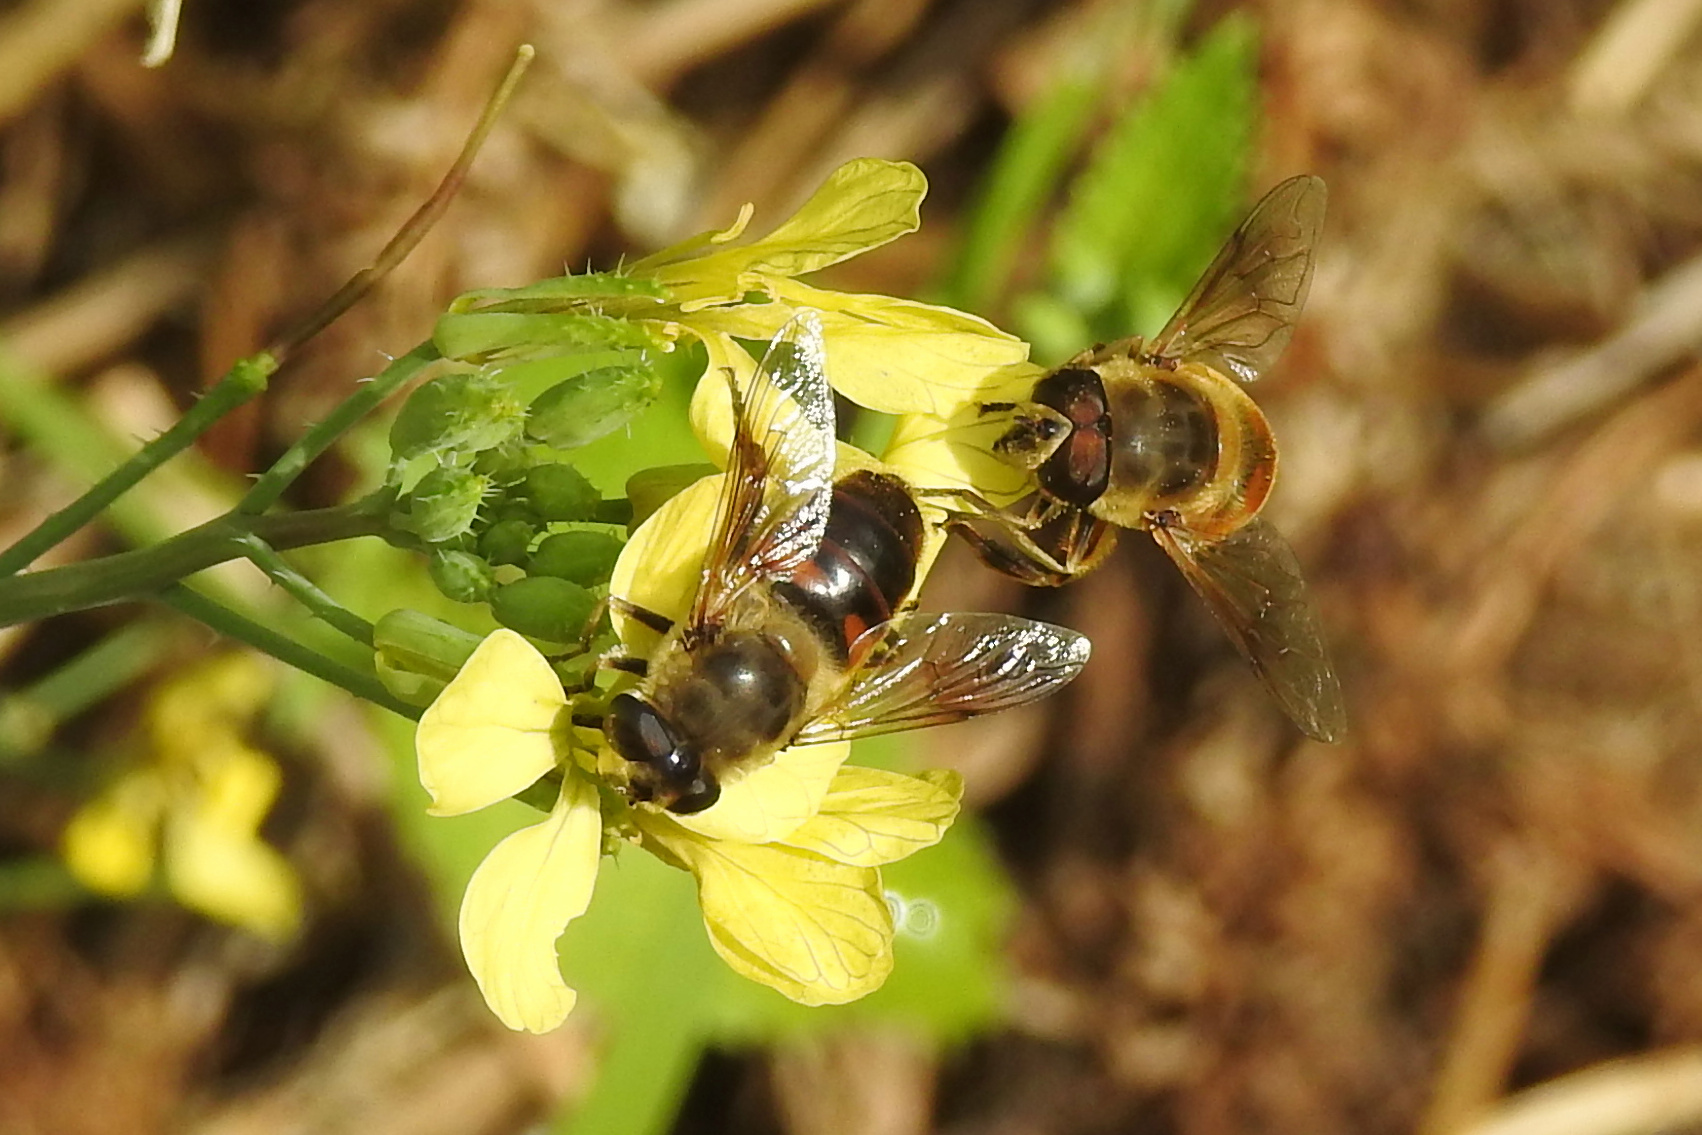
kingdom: Animalia
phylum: Arthropoda
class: Insecta
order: Diptera
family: Syrphidae
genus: Eristalis
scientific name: Eristalis tenax
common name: Drone fly
